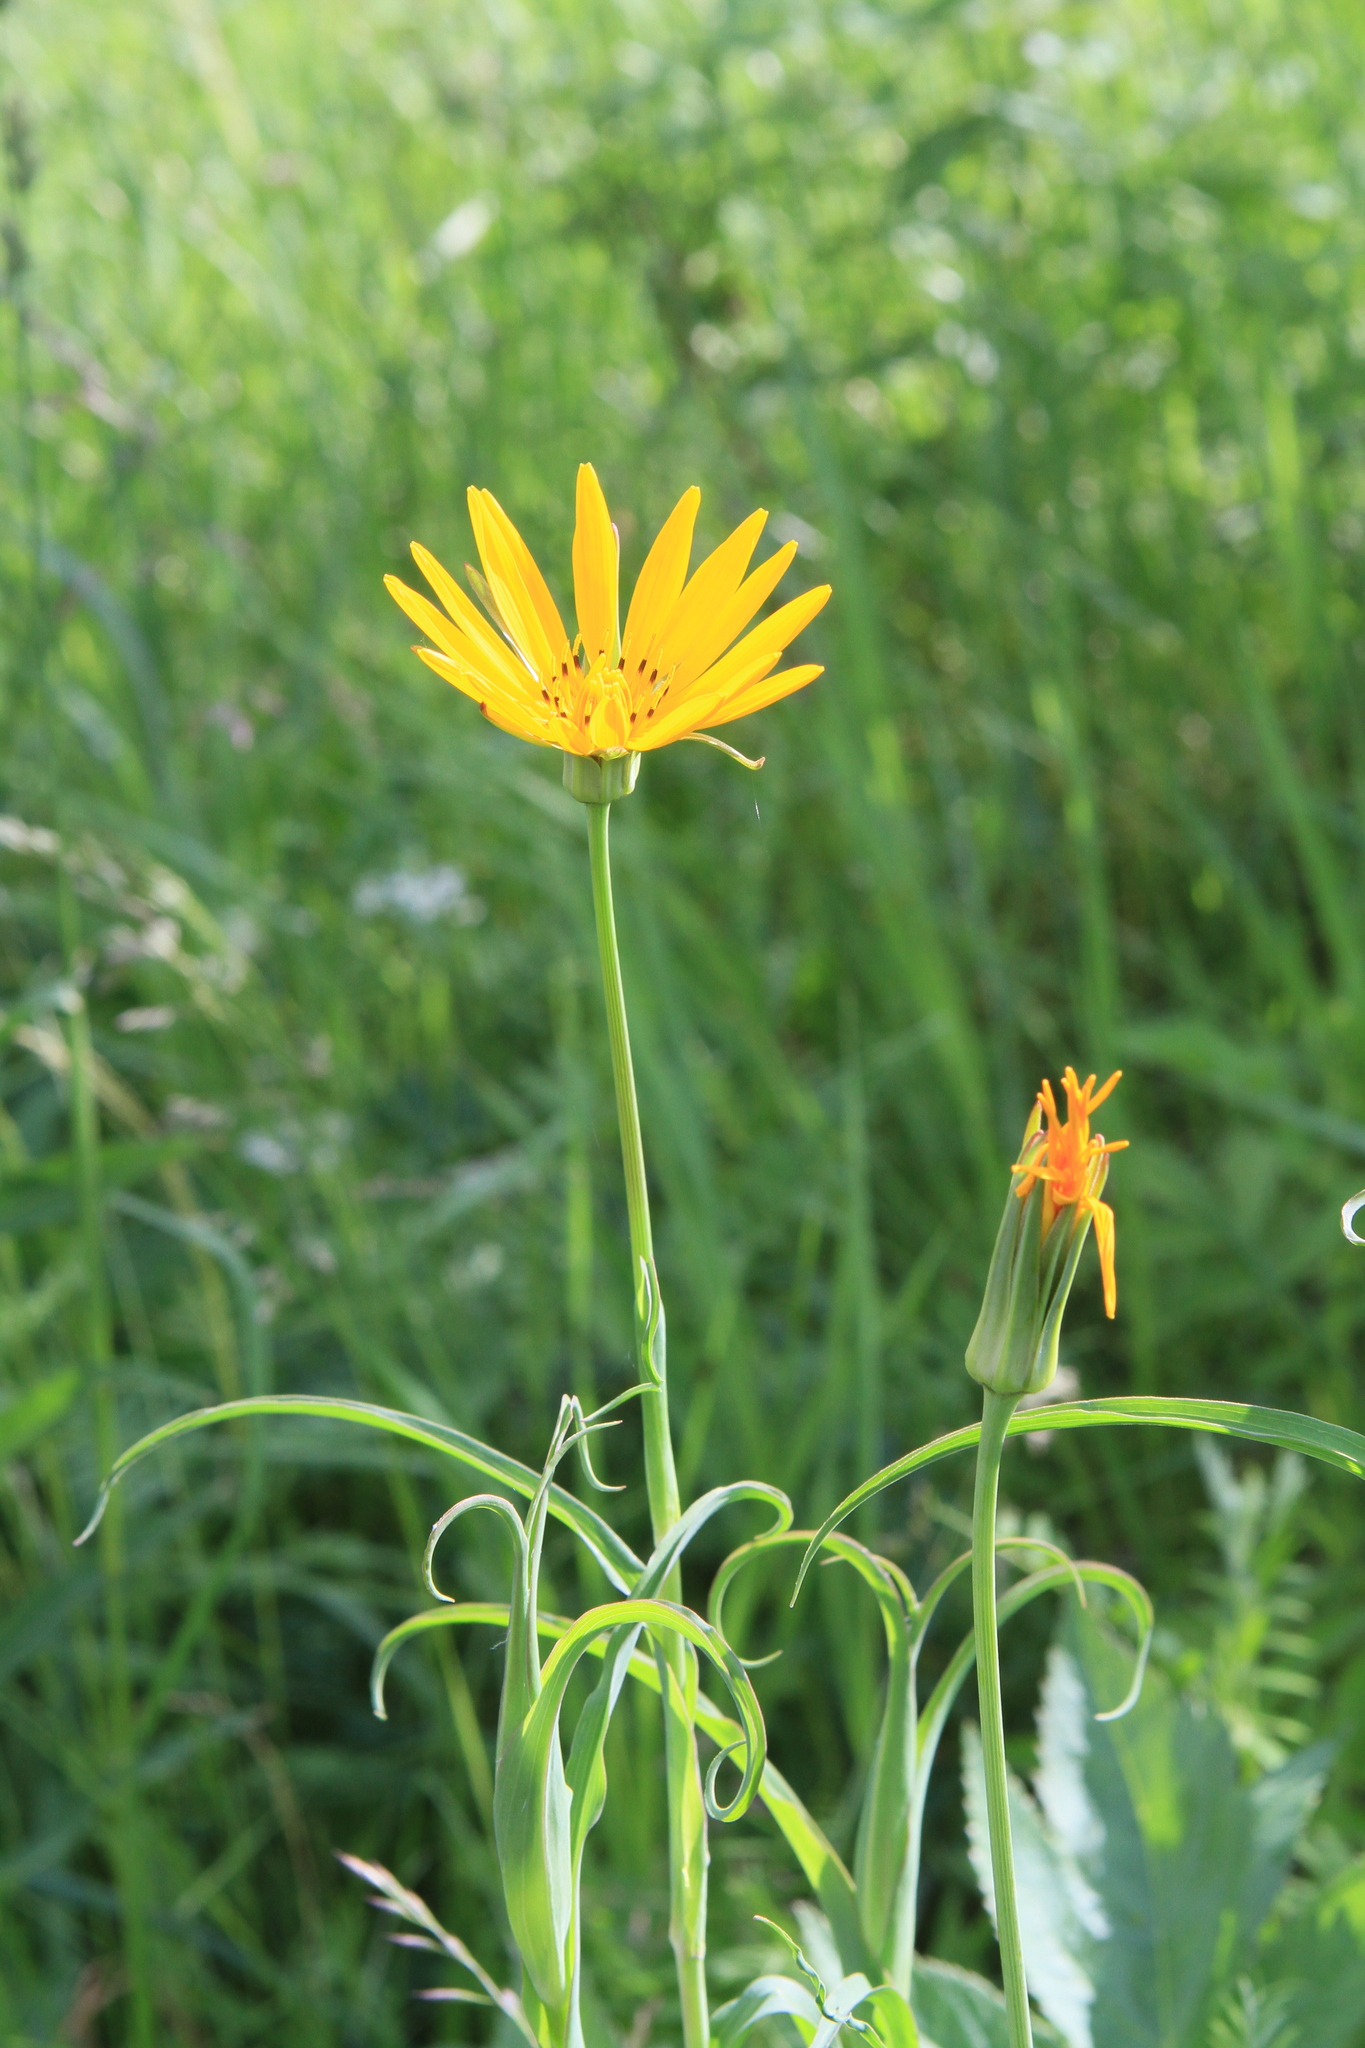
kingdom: Plantae
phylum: Tracheophyta
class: Magnoliopsida
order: Asterales
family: Asteraceae
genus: Tragopogon
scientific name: Tragopogon orientalis
